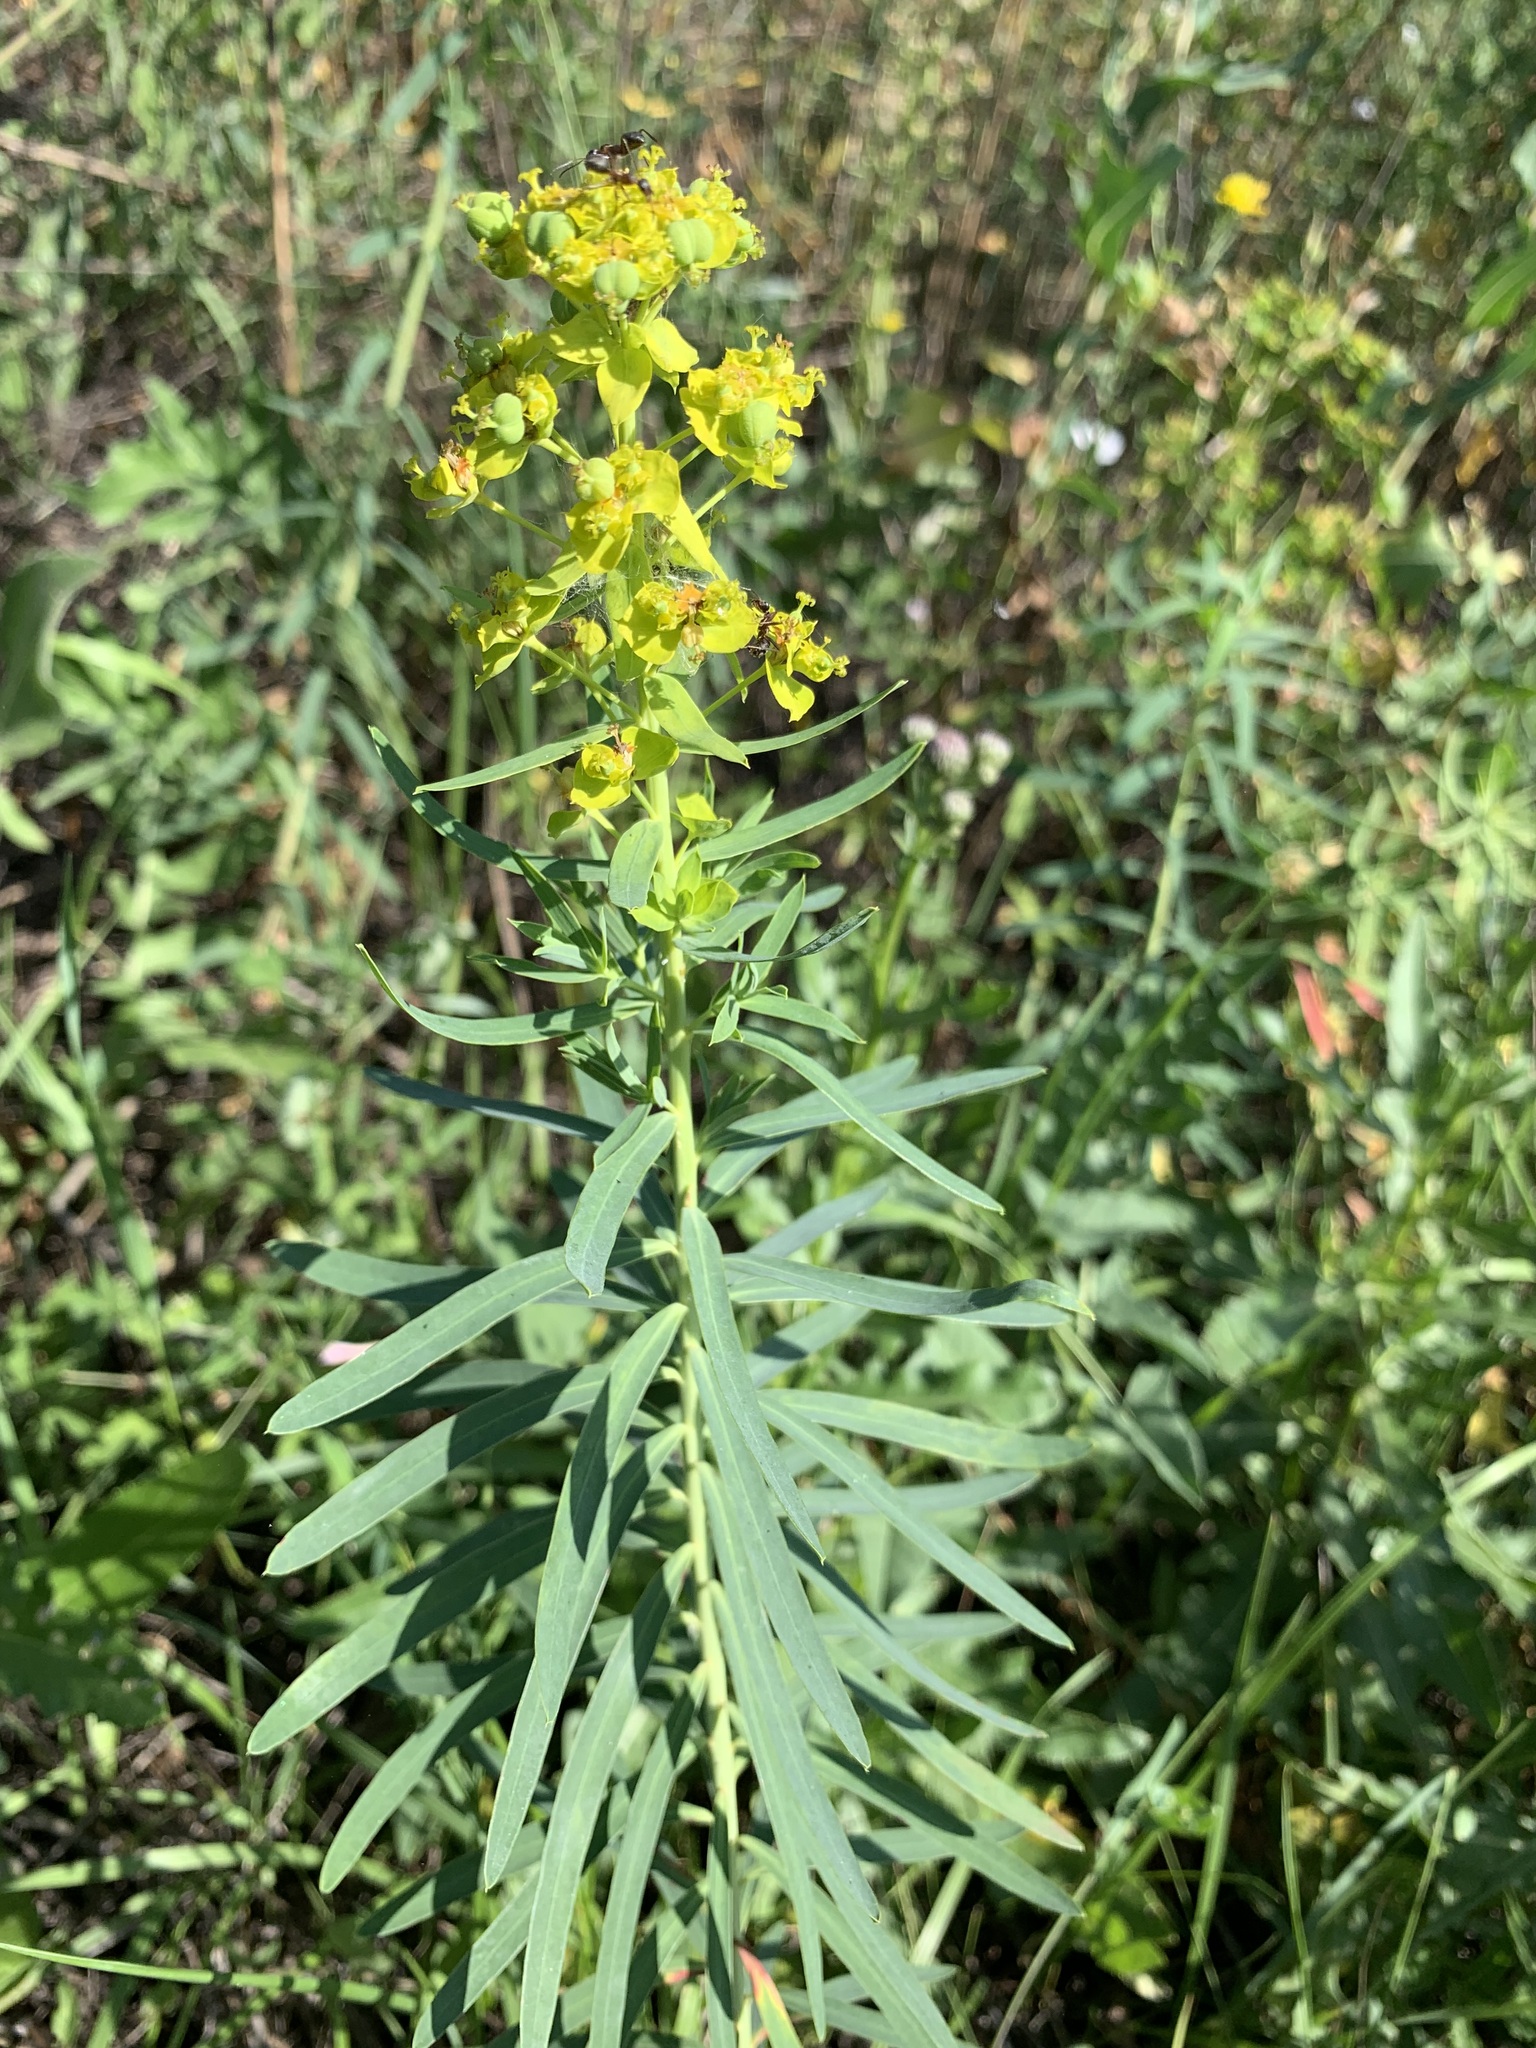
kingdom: Plantae
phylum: Tracheophyta
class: Magnoliopsida
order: Malpighiales
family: Euphorbiaceae
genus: Euphorbia
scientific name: Euphorbia virgata
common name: Leafy spurge
